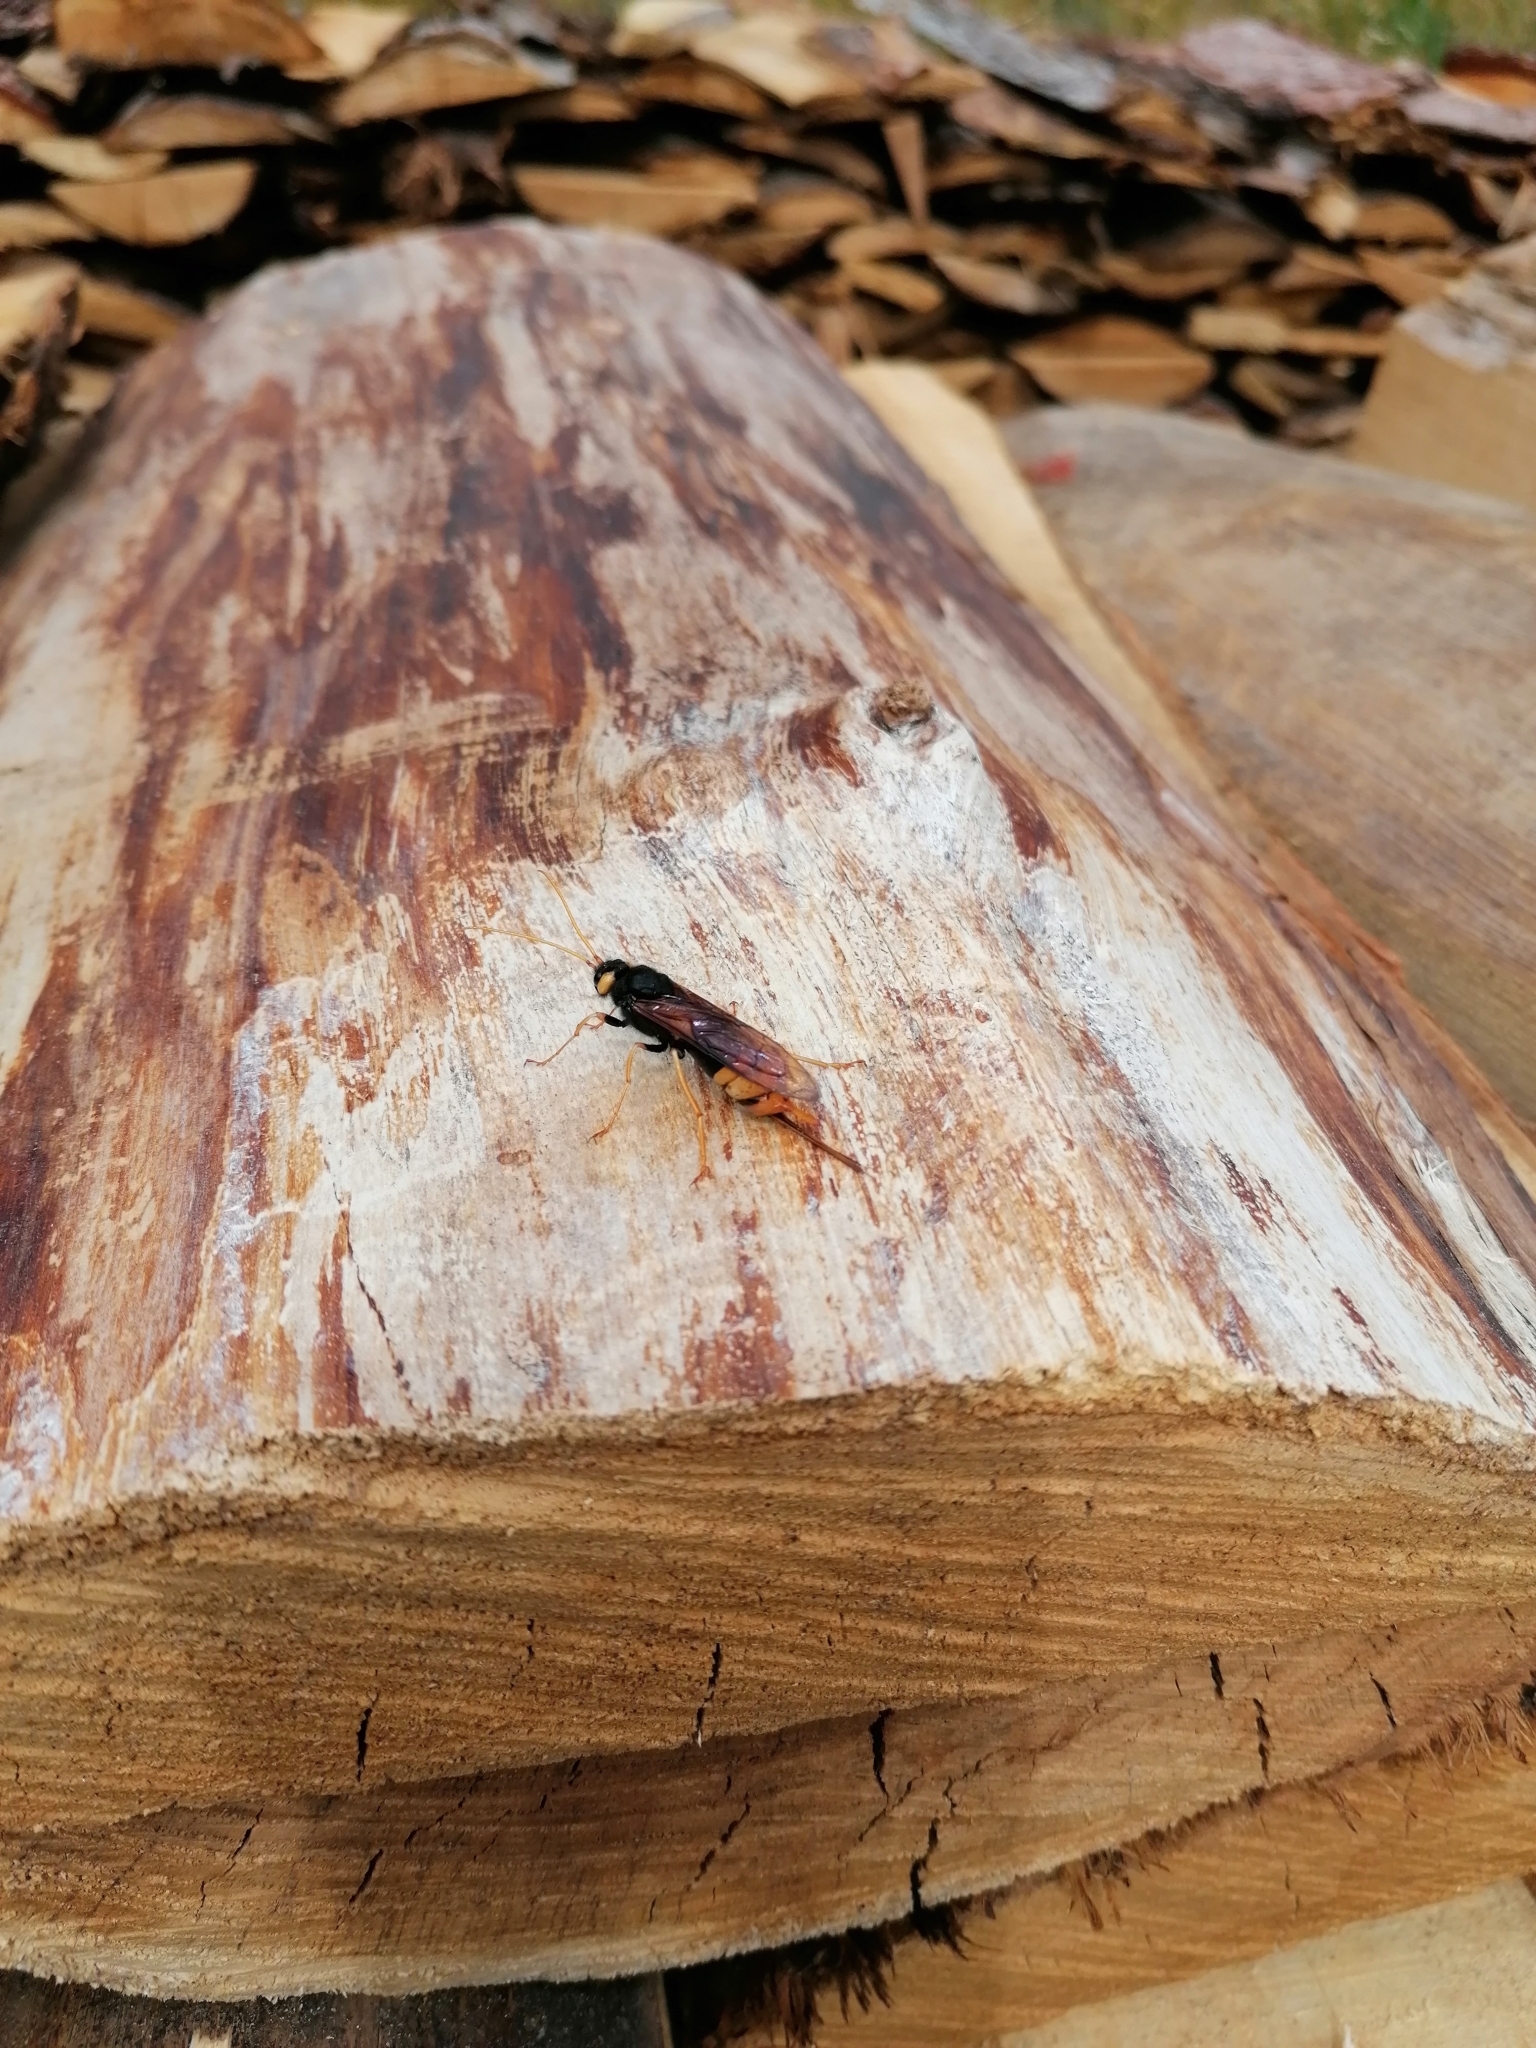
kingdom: Animalia
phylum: Arthropoda
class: Insecta
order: Hymenoptera
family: Siricidae
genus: Urocerus
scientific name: Urocerus gigas
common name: Giant woodwasp
